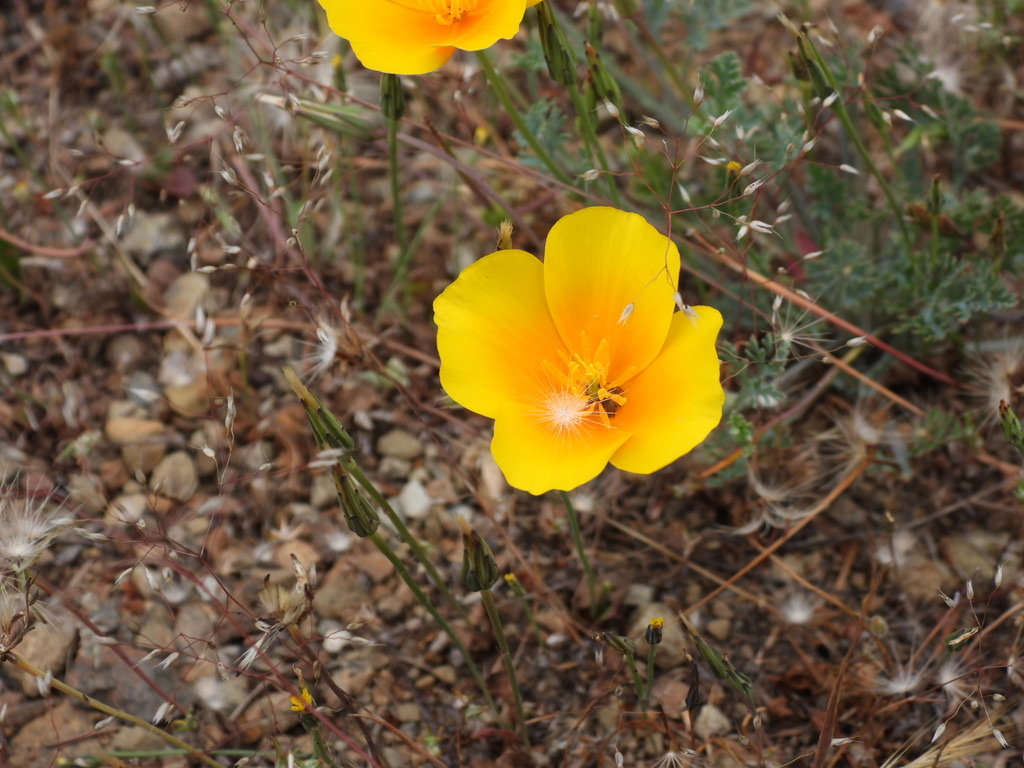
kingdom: Plantae
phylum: Tracheophyta
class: Magnoliopsida
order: Ranunculales
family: Papaveraceae
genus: Eschscholzia
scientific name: Eschscholzia californica
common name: California poppy
